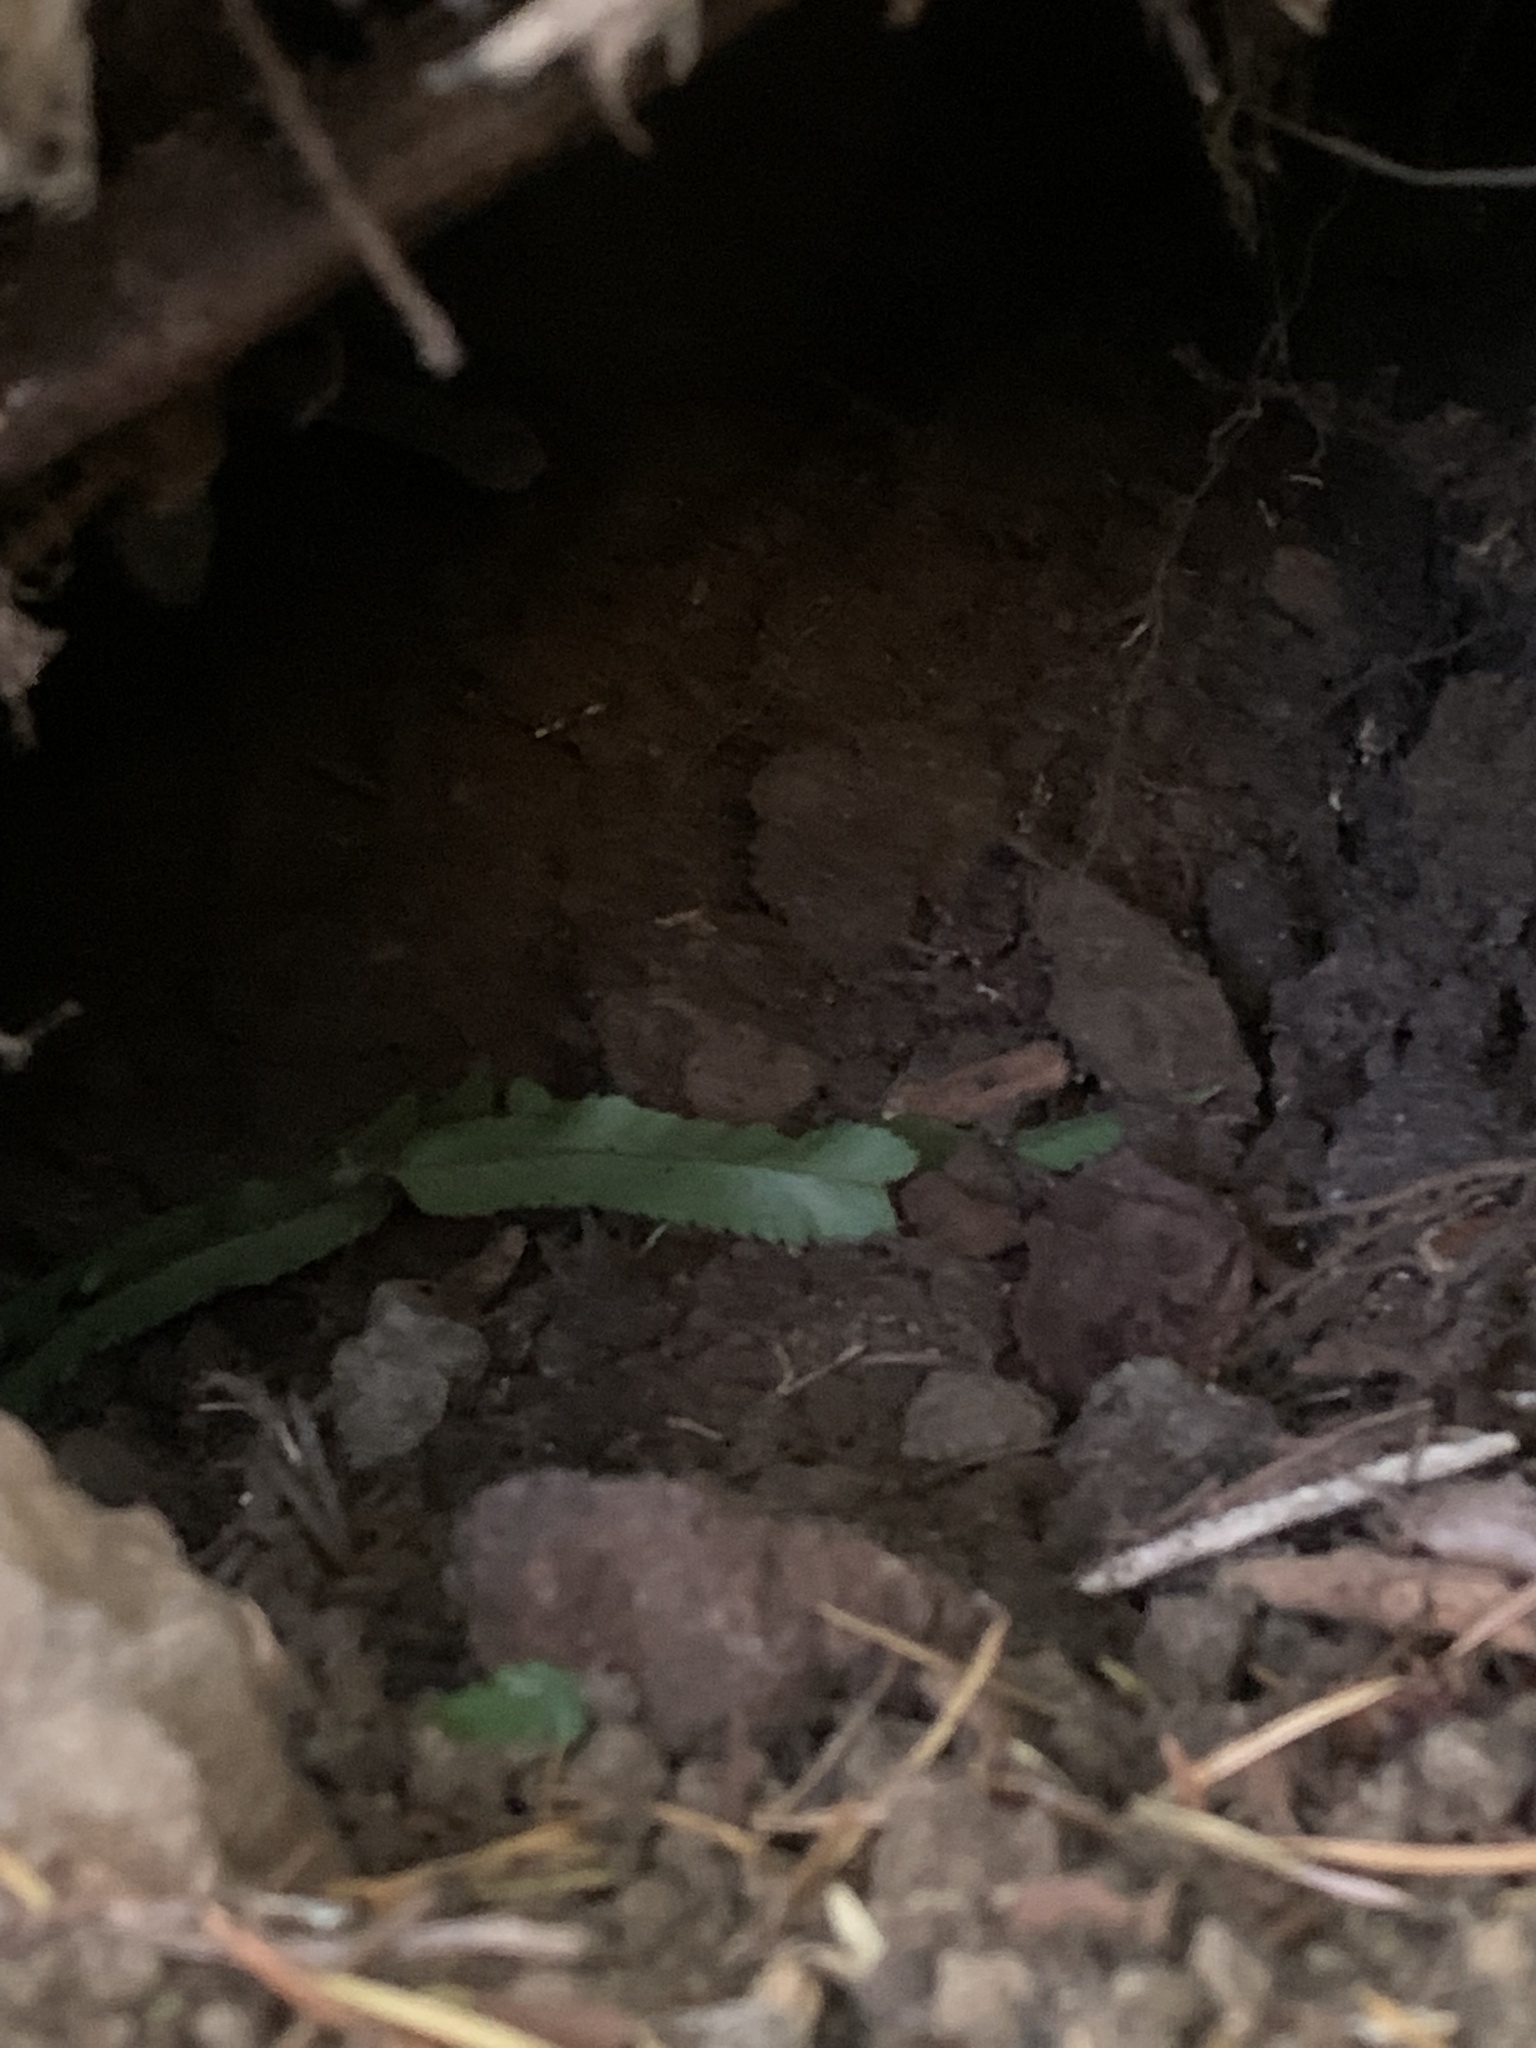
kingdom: Animalia
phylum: Chordata
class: Mammalia
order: Rodentia
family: Aplodontiidae
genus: Aplodontia
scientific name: Aplodontia rufa
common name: Mountain beaver
